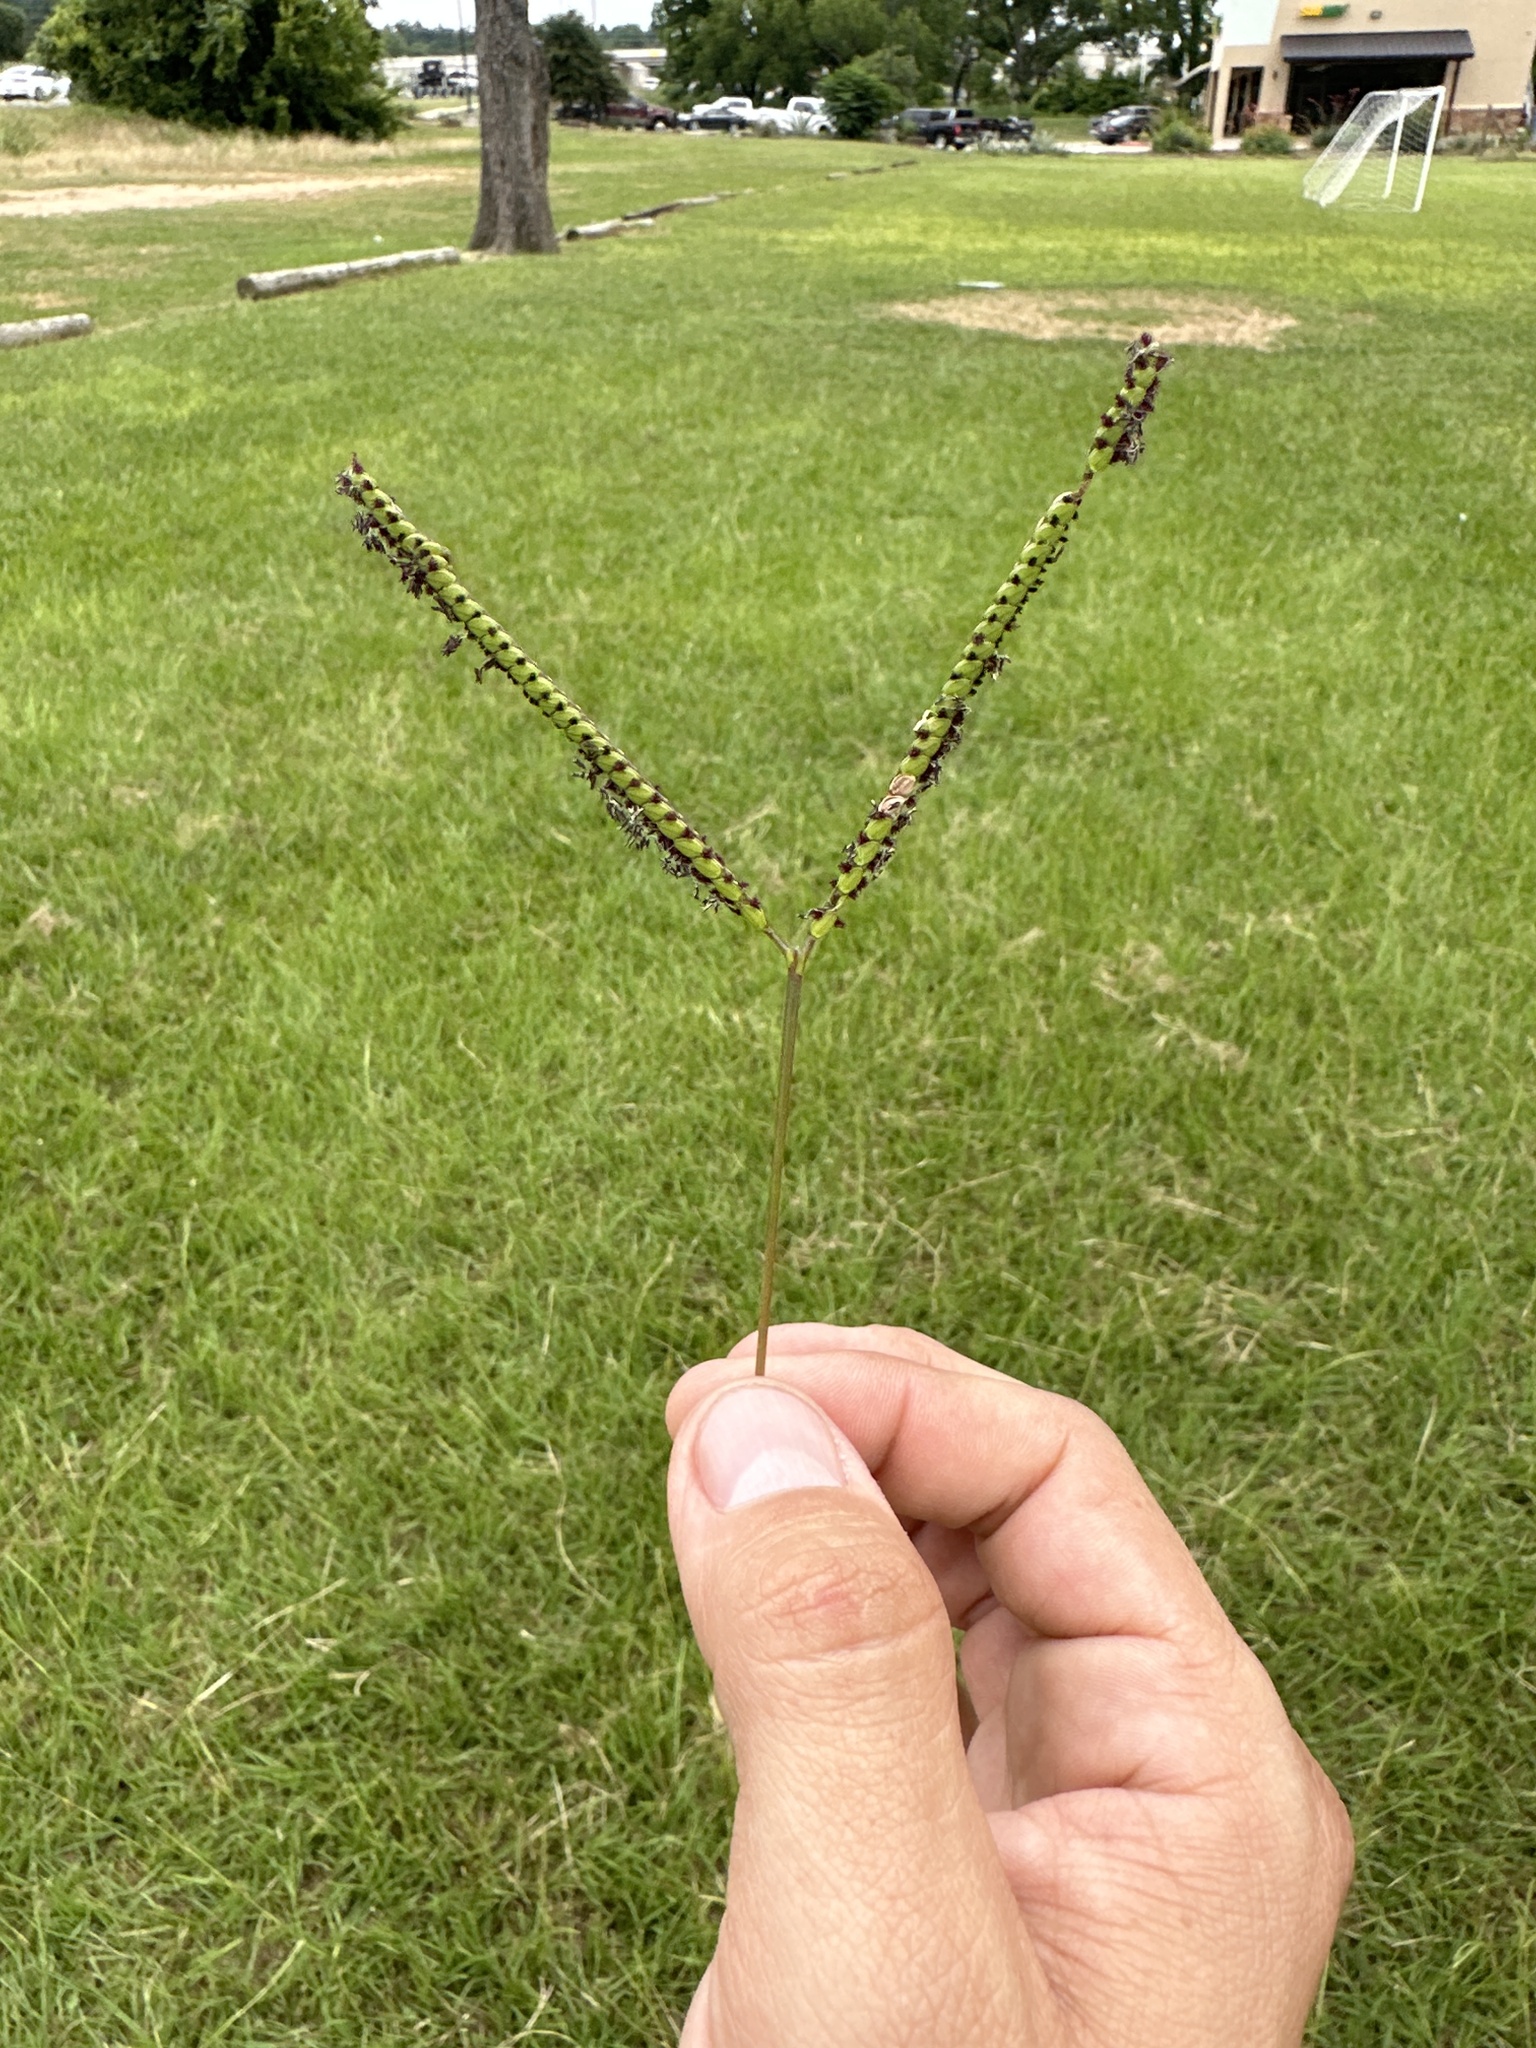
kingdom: Plantae
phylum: Tracheophyta
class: Liliopsida
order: Poales
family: Poaceae
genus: Paspalum
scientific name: Paspalum notatum
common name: Bahiagrass
